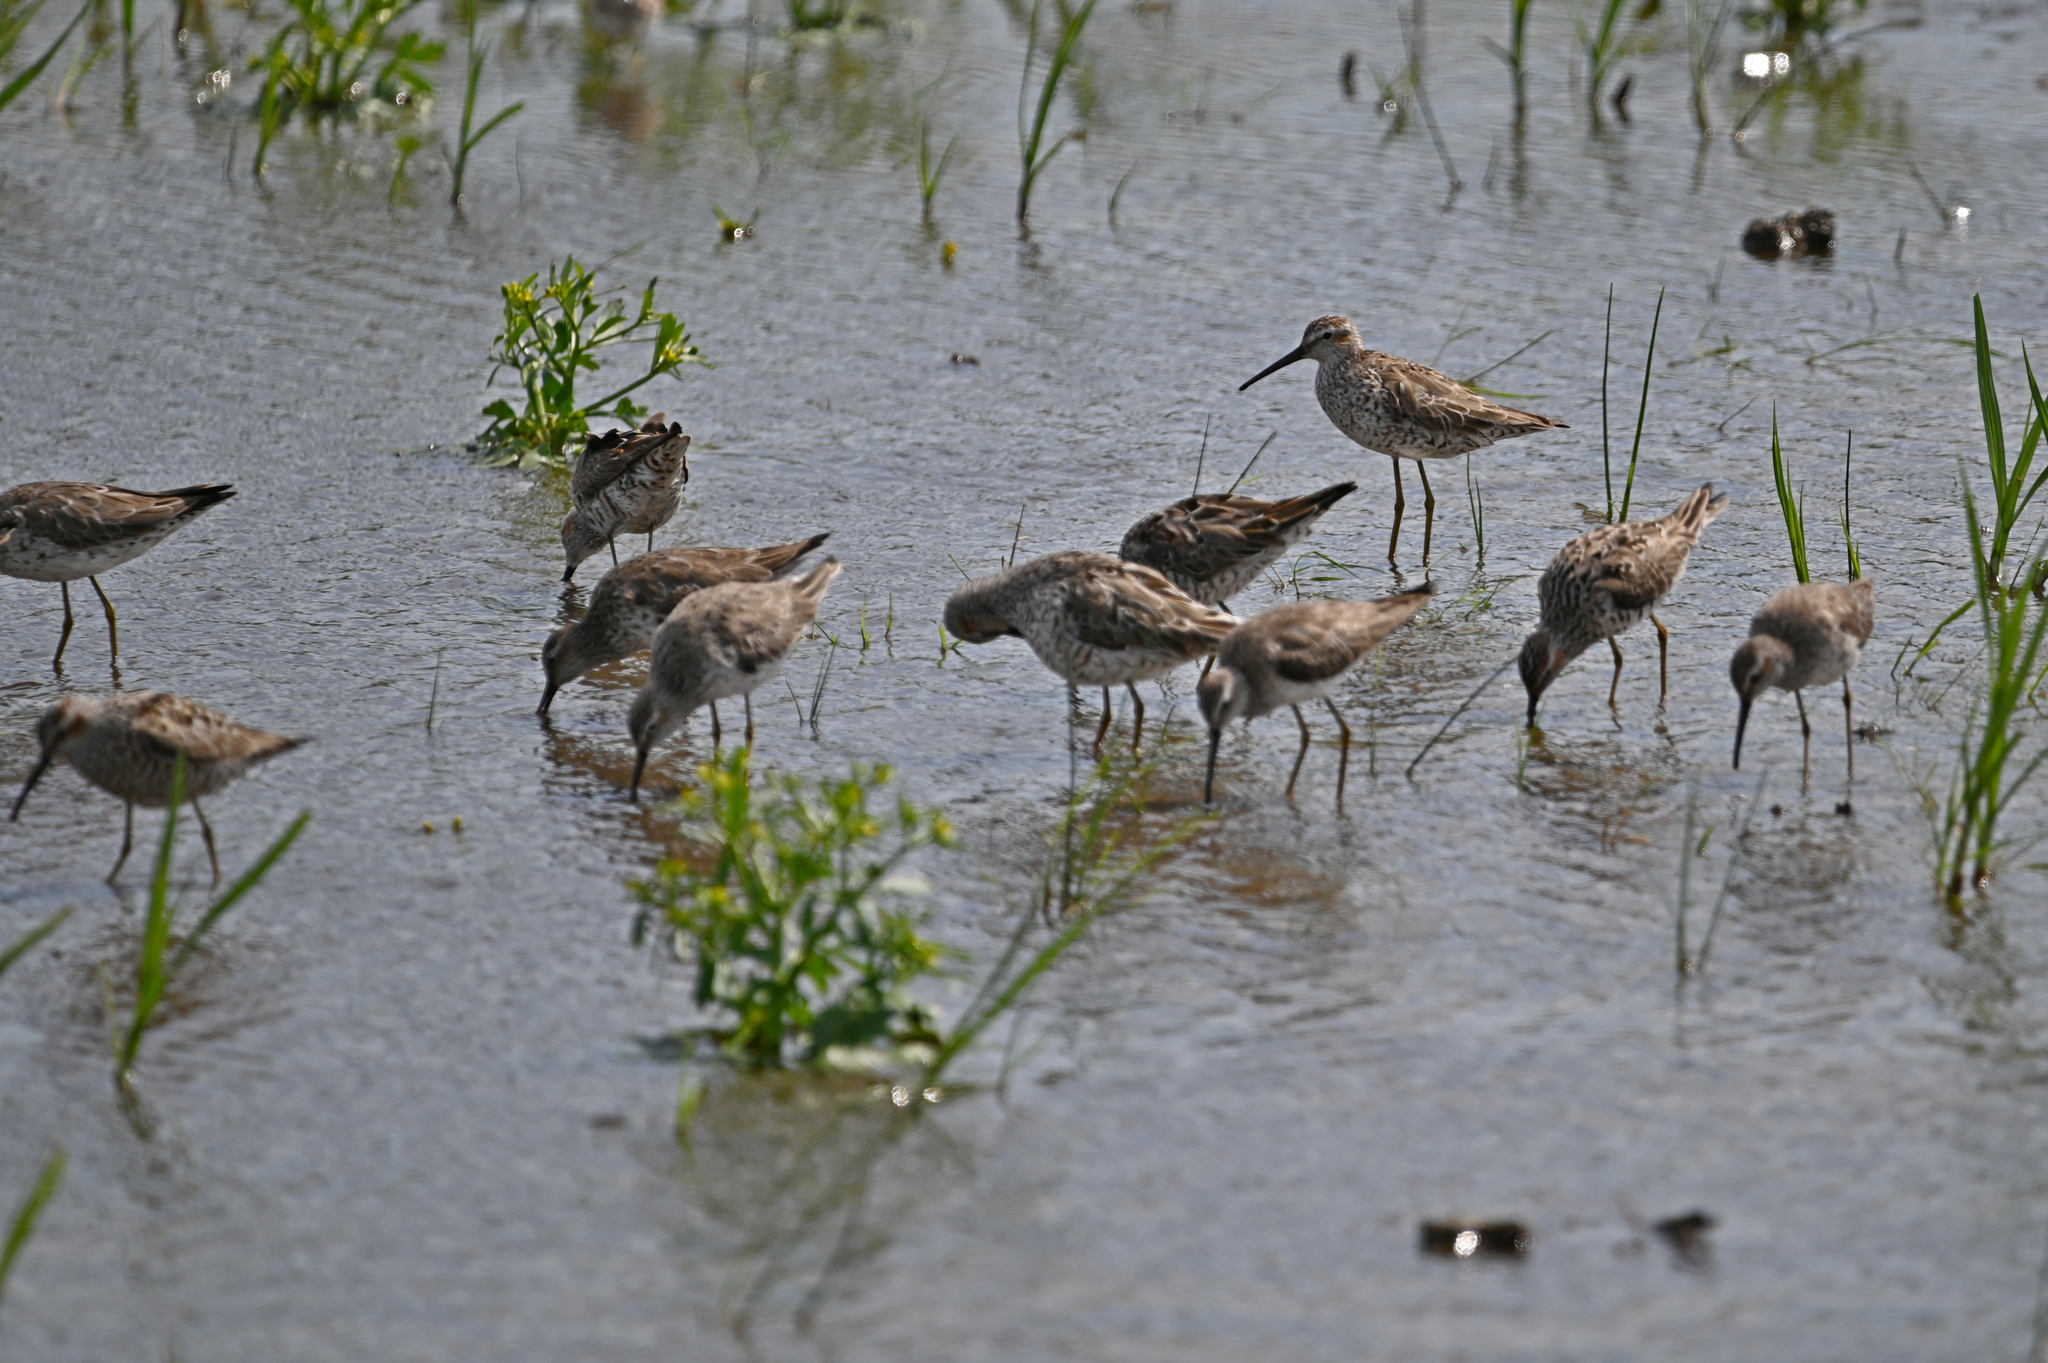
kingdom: Animalia
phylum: Chordata
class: Aves
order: Charadriiformes
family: Scolopacidae
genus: Calidris
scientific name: Calidris himantopus
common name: Stilt sandpiper
